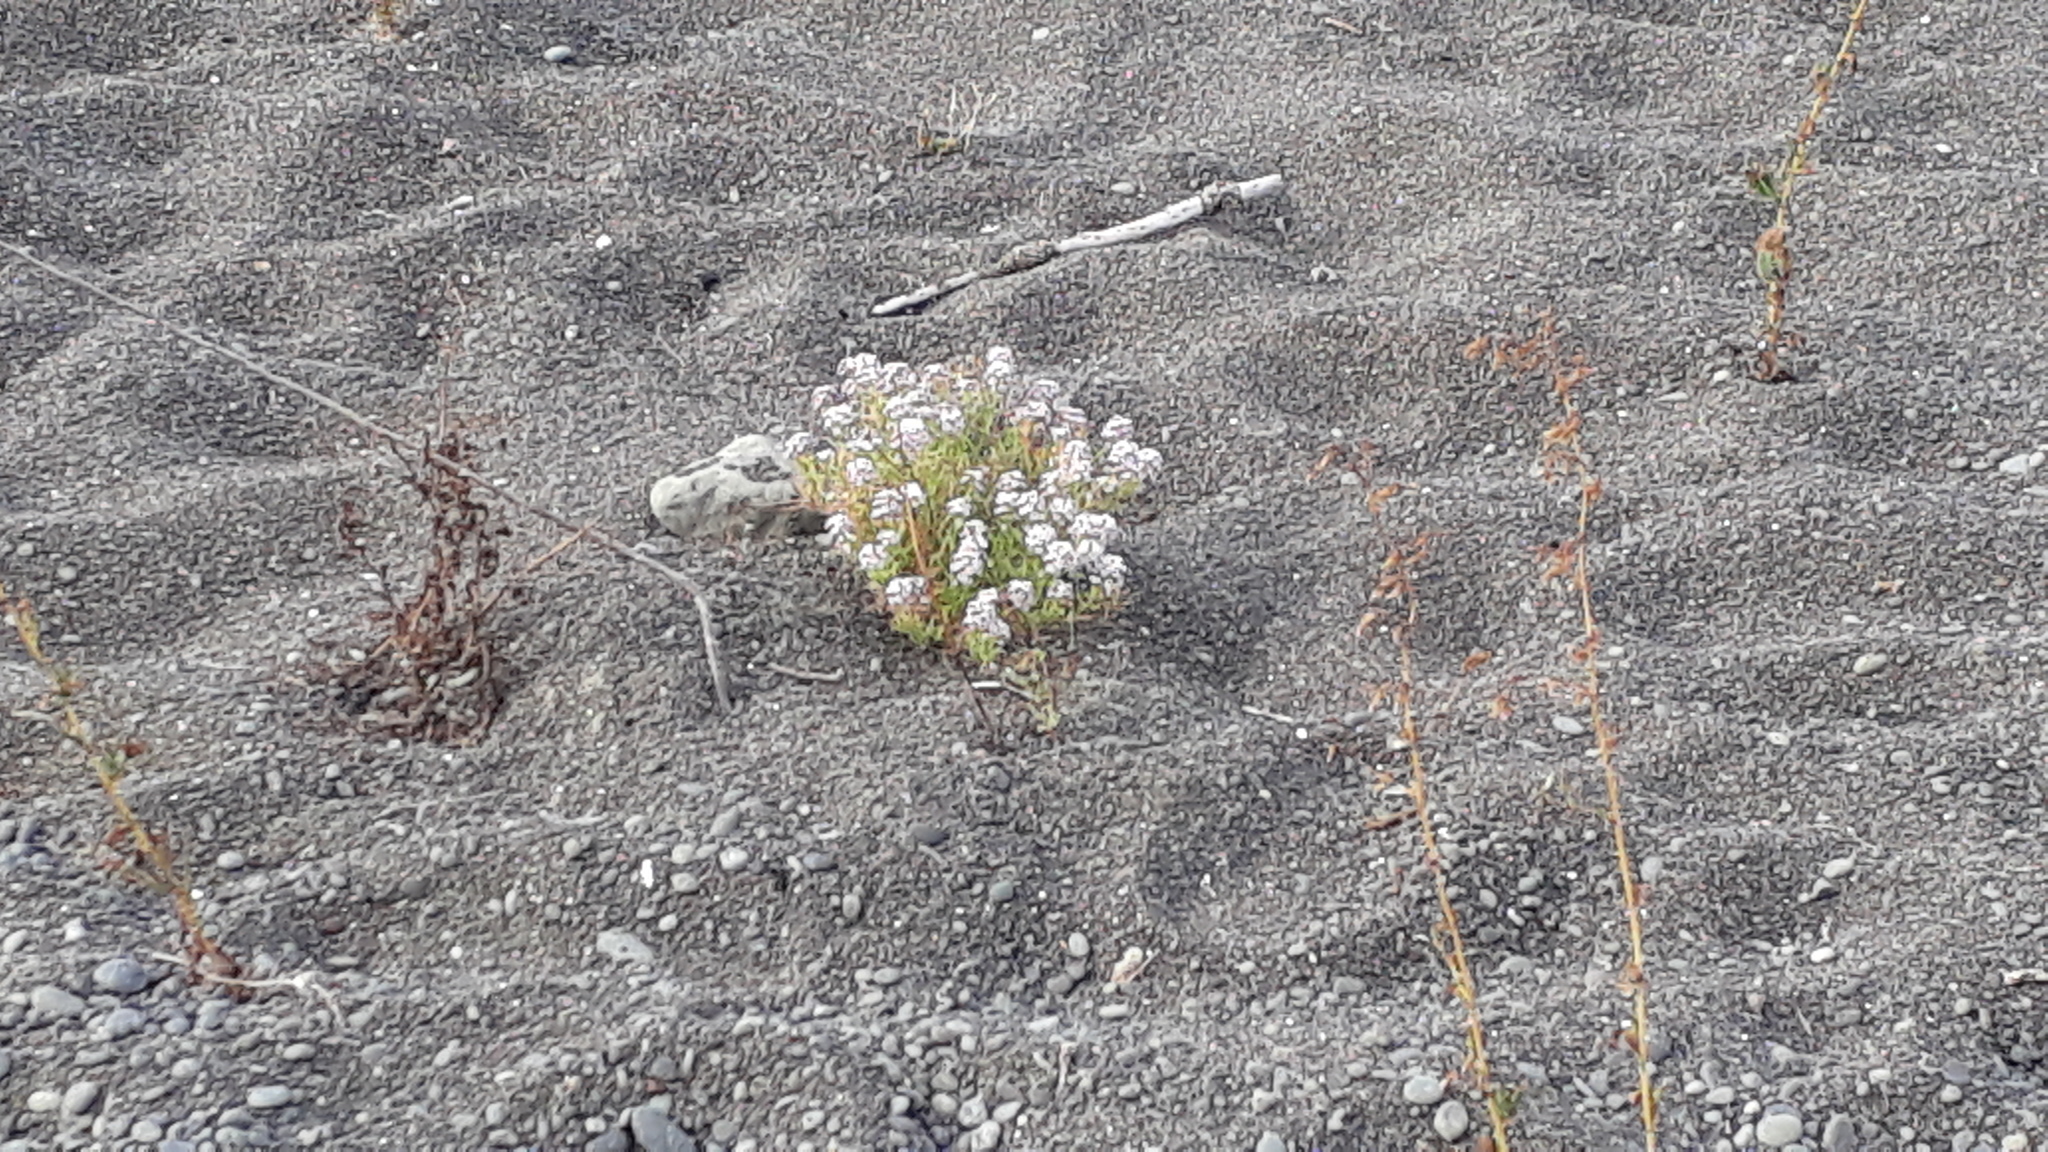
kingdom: Plantae
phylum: Tracheophyta
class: Magnoliopsida
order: Brassicales
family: Brassicaceae
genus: Lobularia
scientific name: Lobularia maritima
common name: Sweet alison
